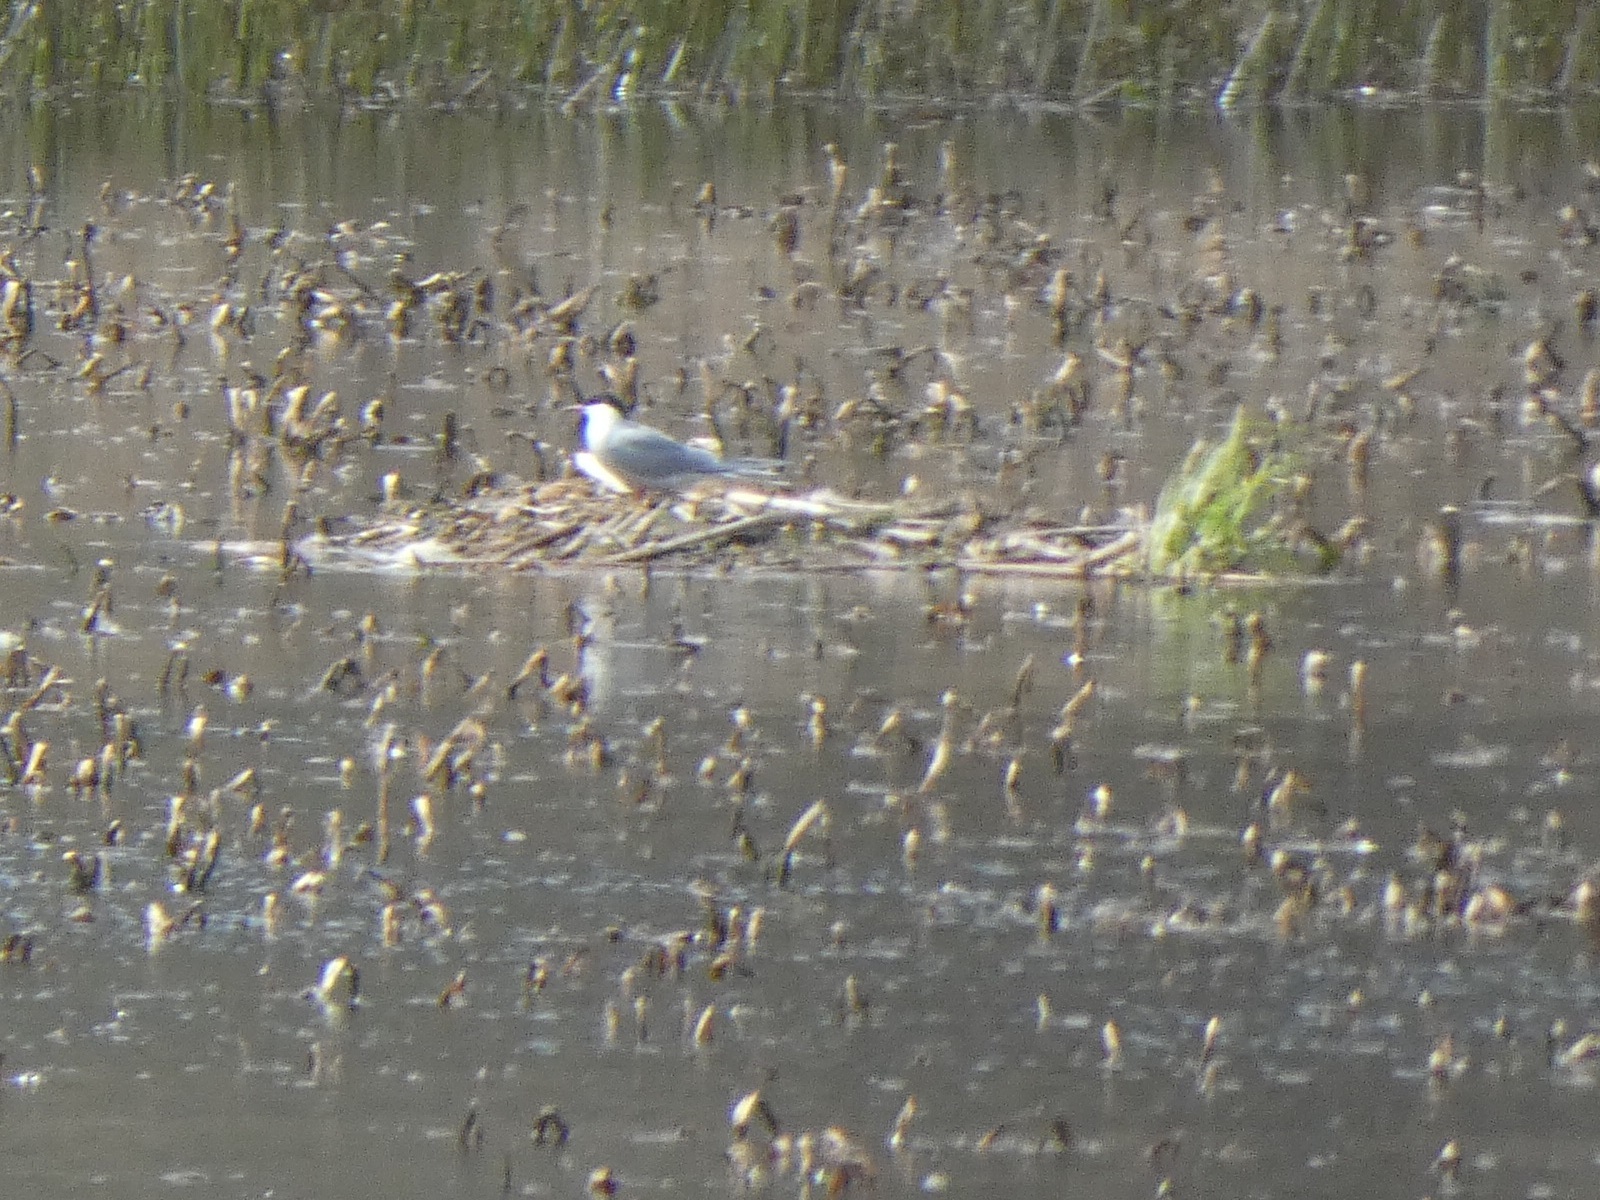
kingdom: Animalia
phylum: Chordata
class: Aves
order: Charadriiformes
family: Laridae
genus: Sterna
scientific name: Sterna hirundo
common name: Common tern
